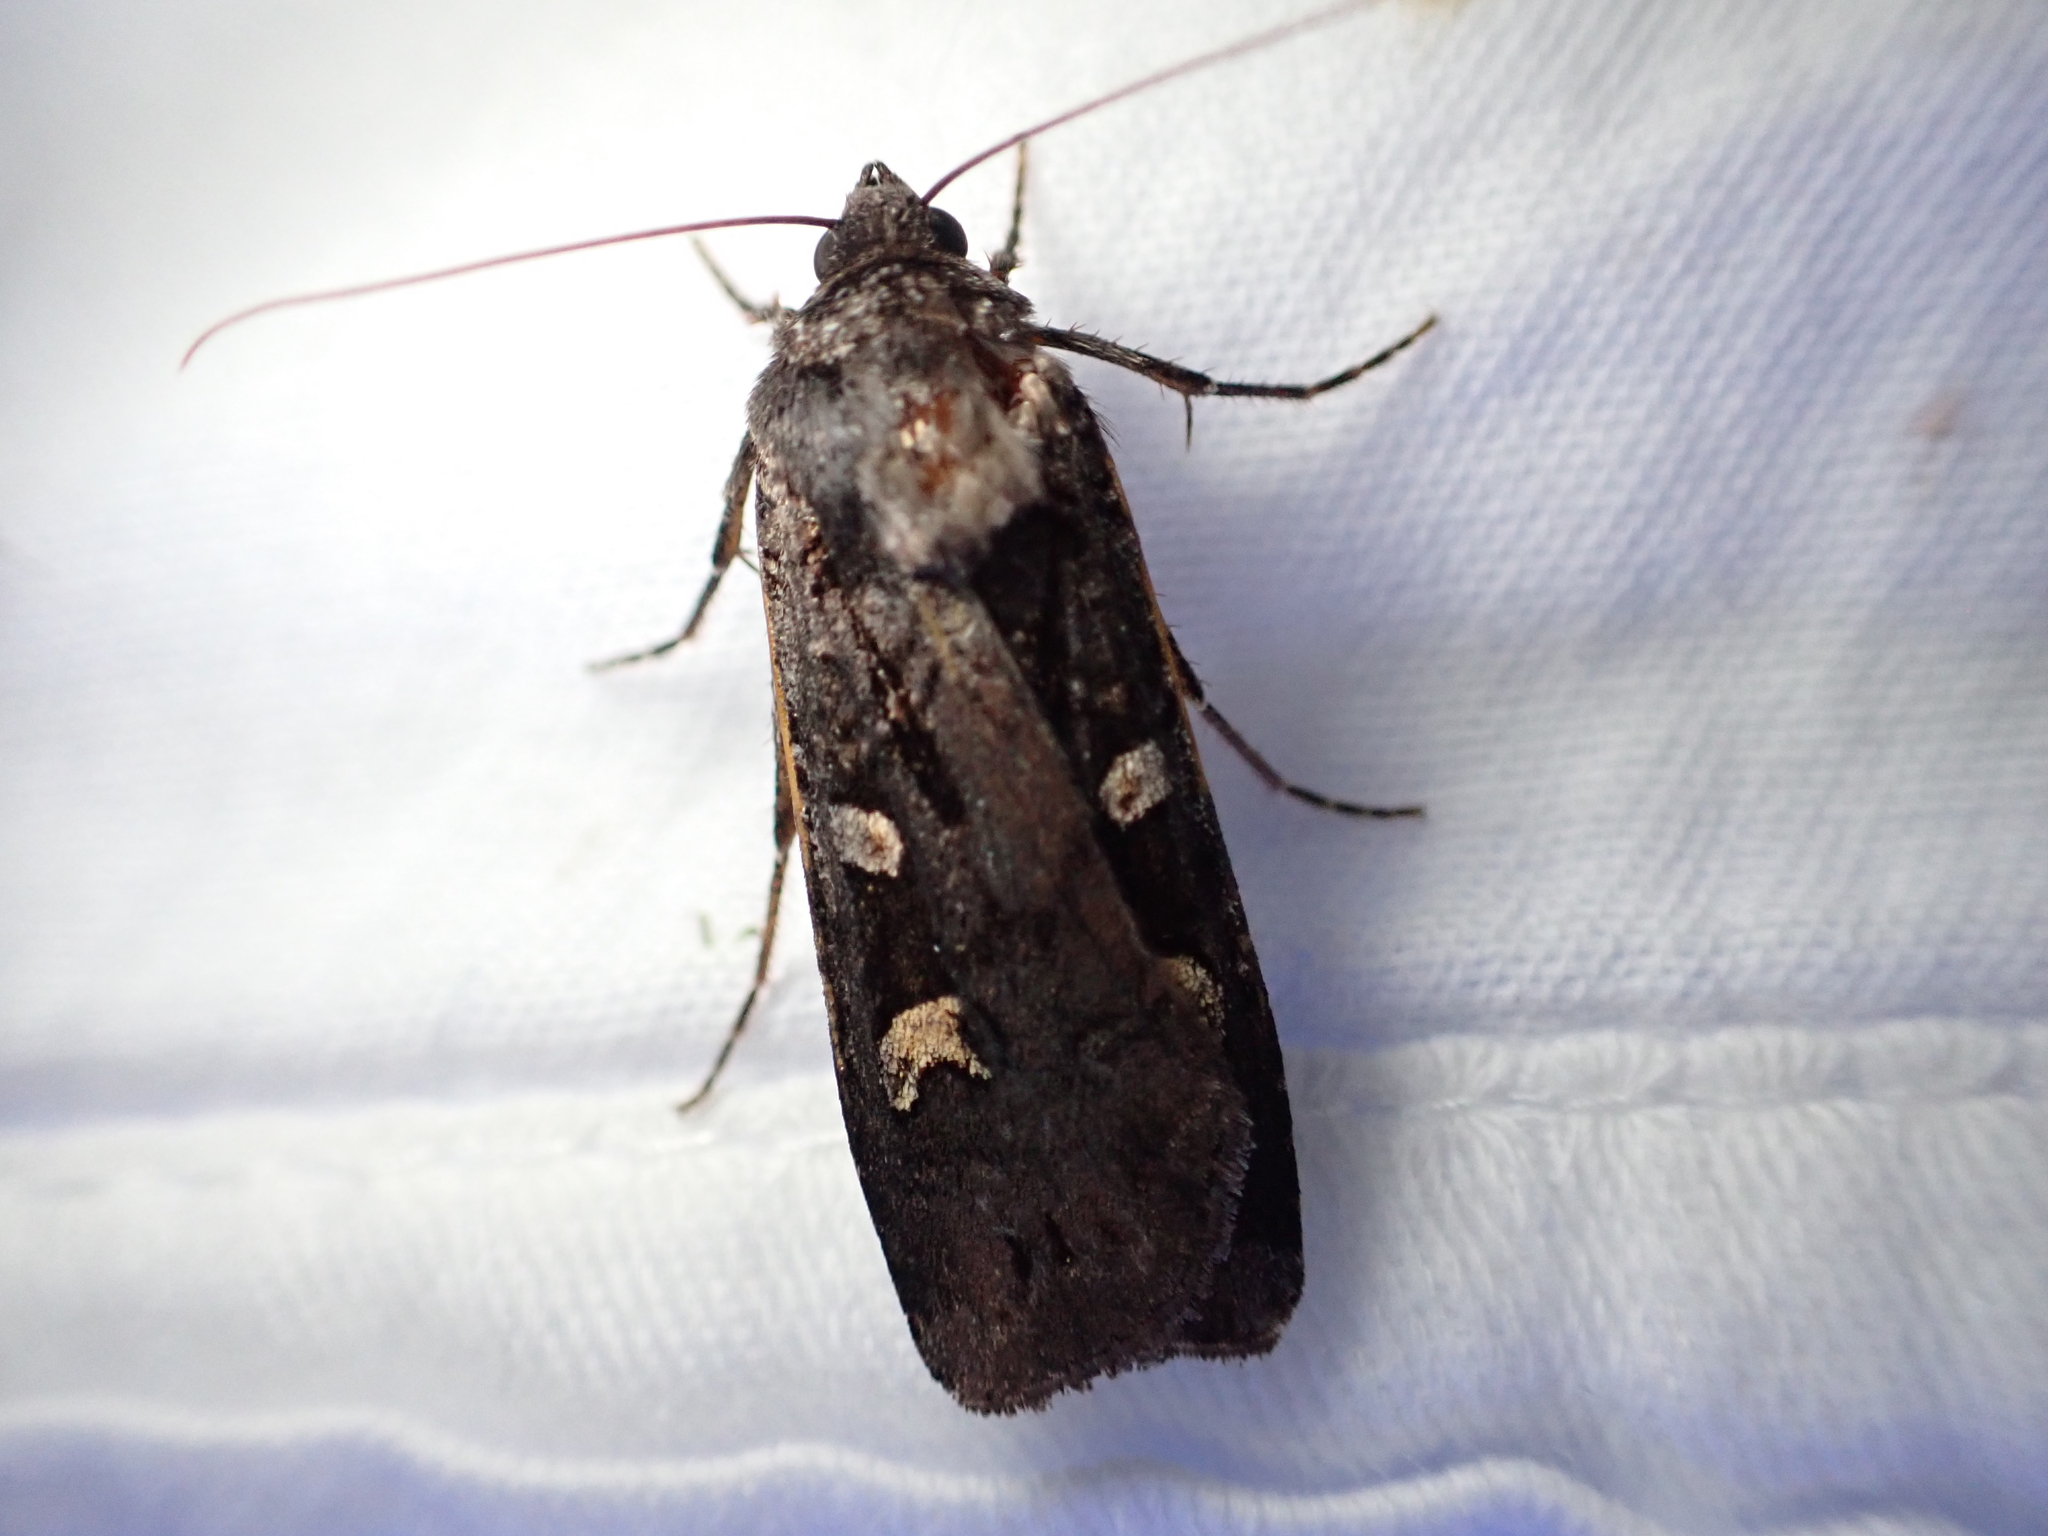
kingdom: Animalia
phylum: Arthropoda
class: Insecta
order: Lepidoptera
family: Noctuidae
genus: Actebia
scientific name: Actebia fennica
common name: Eversmann's rustic
